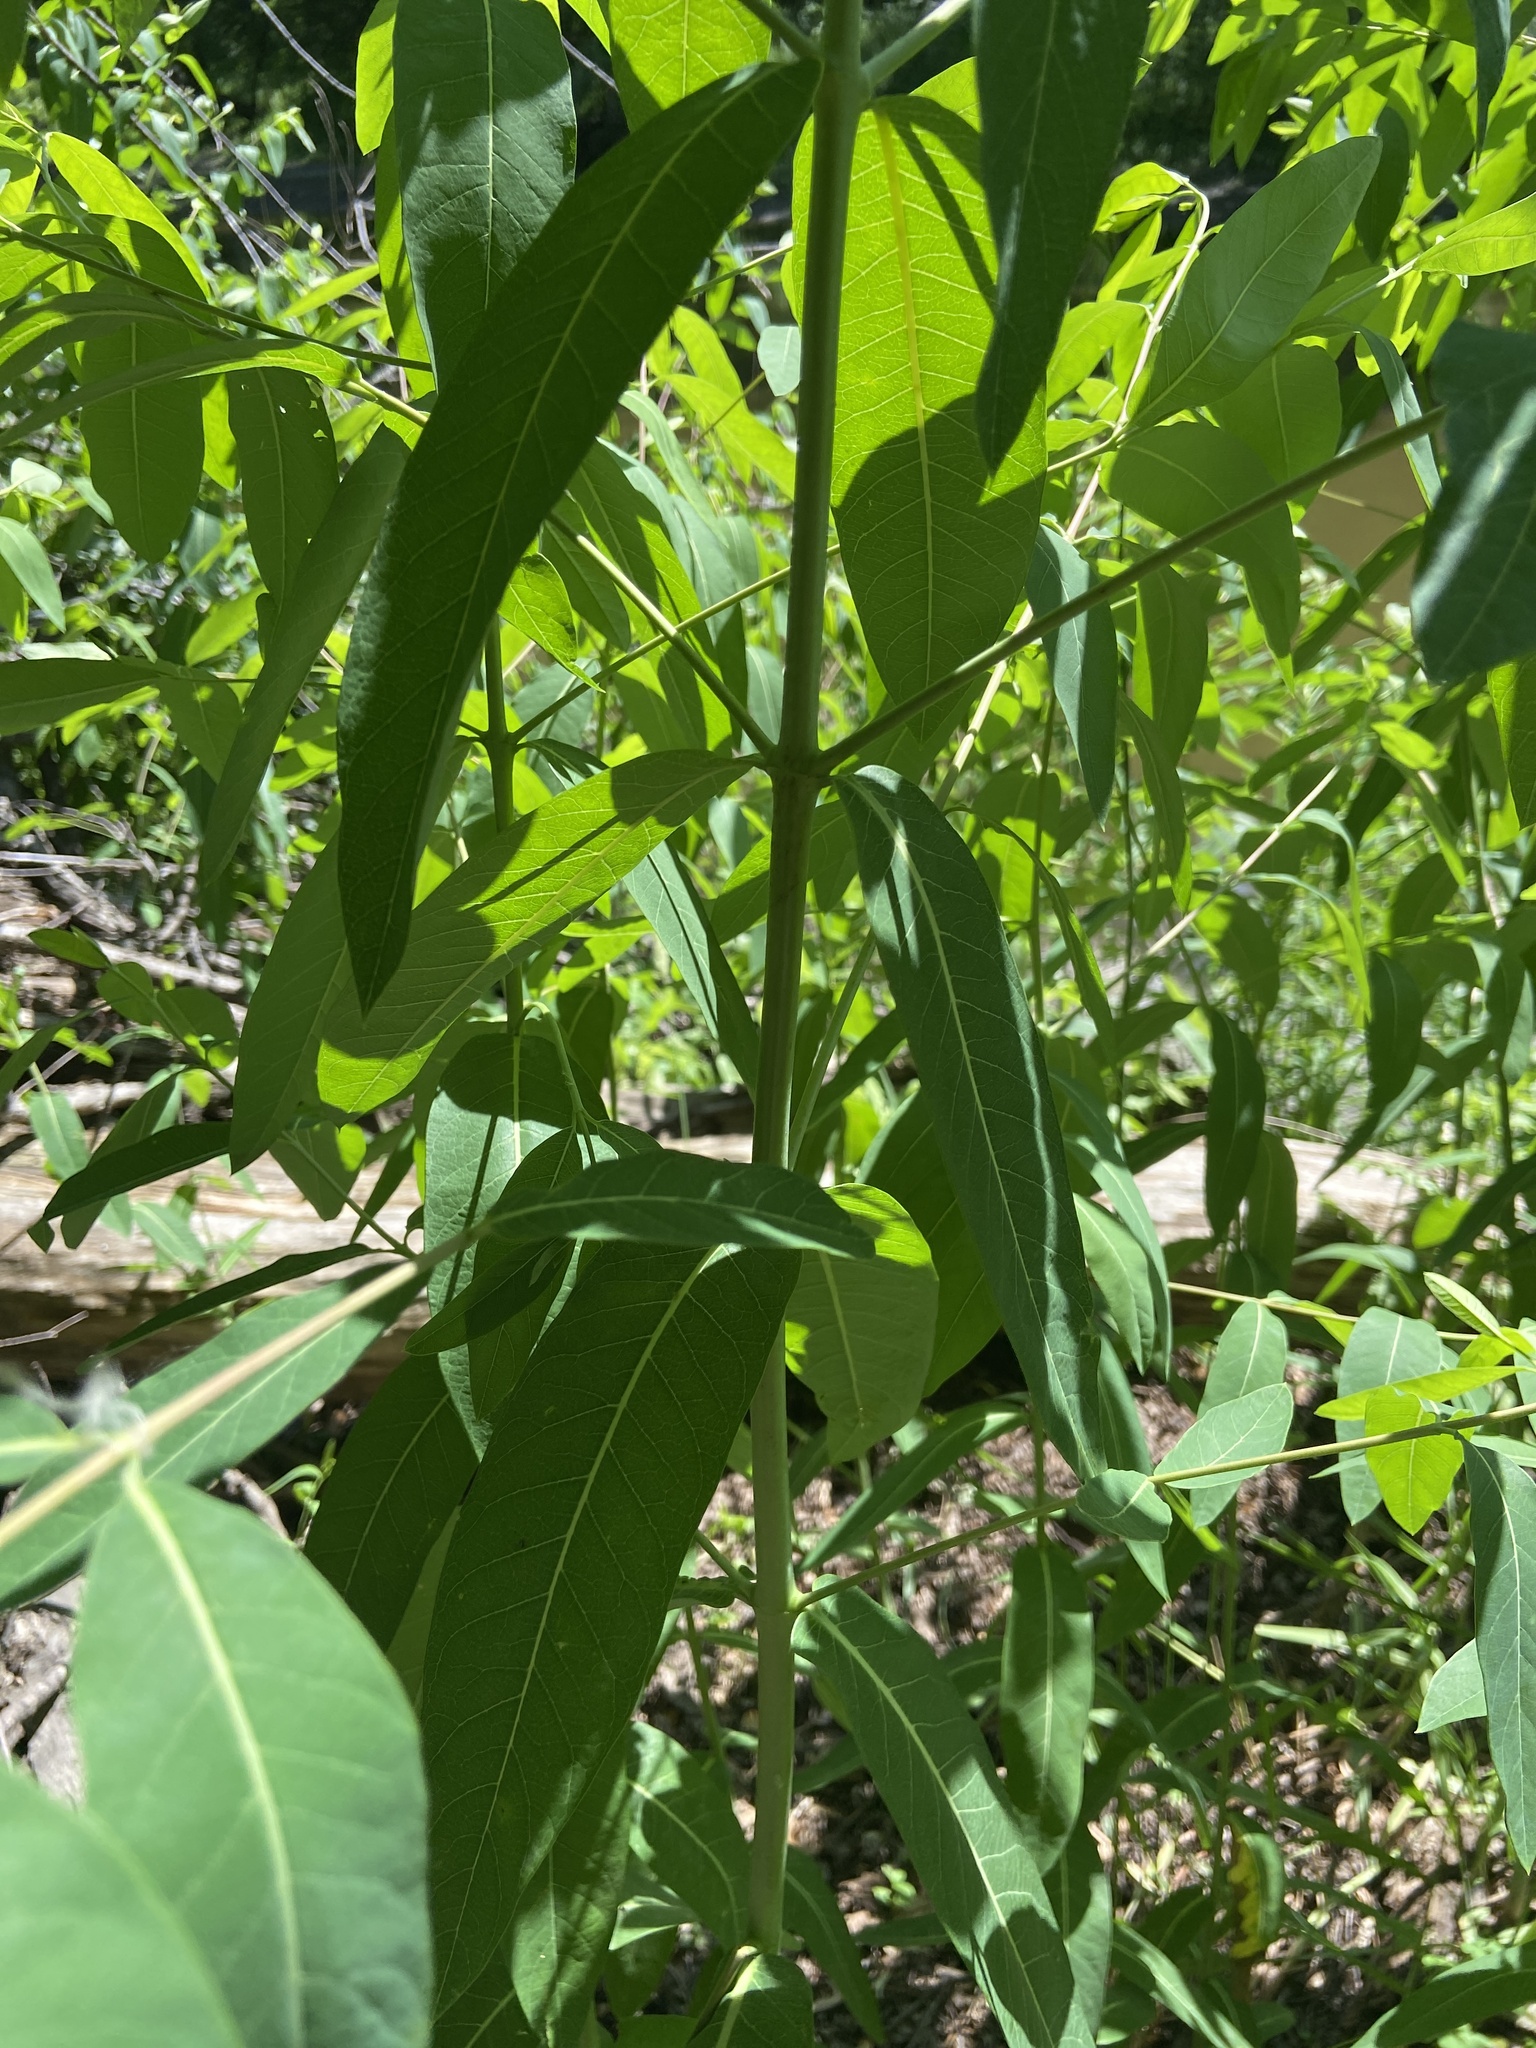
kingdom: Plantae
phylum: Tracheophyta
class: Magnoliopsida
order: Gentianales
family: Apocynaceae
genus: Apocynum
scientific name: Apocynum cannabinum
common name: Hemp dogbane
